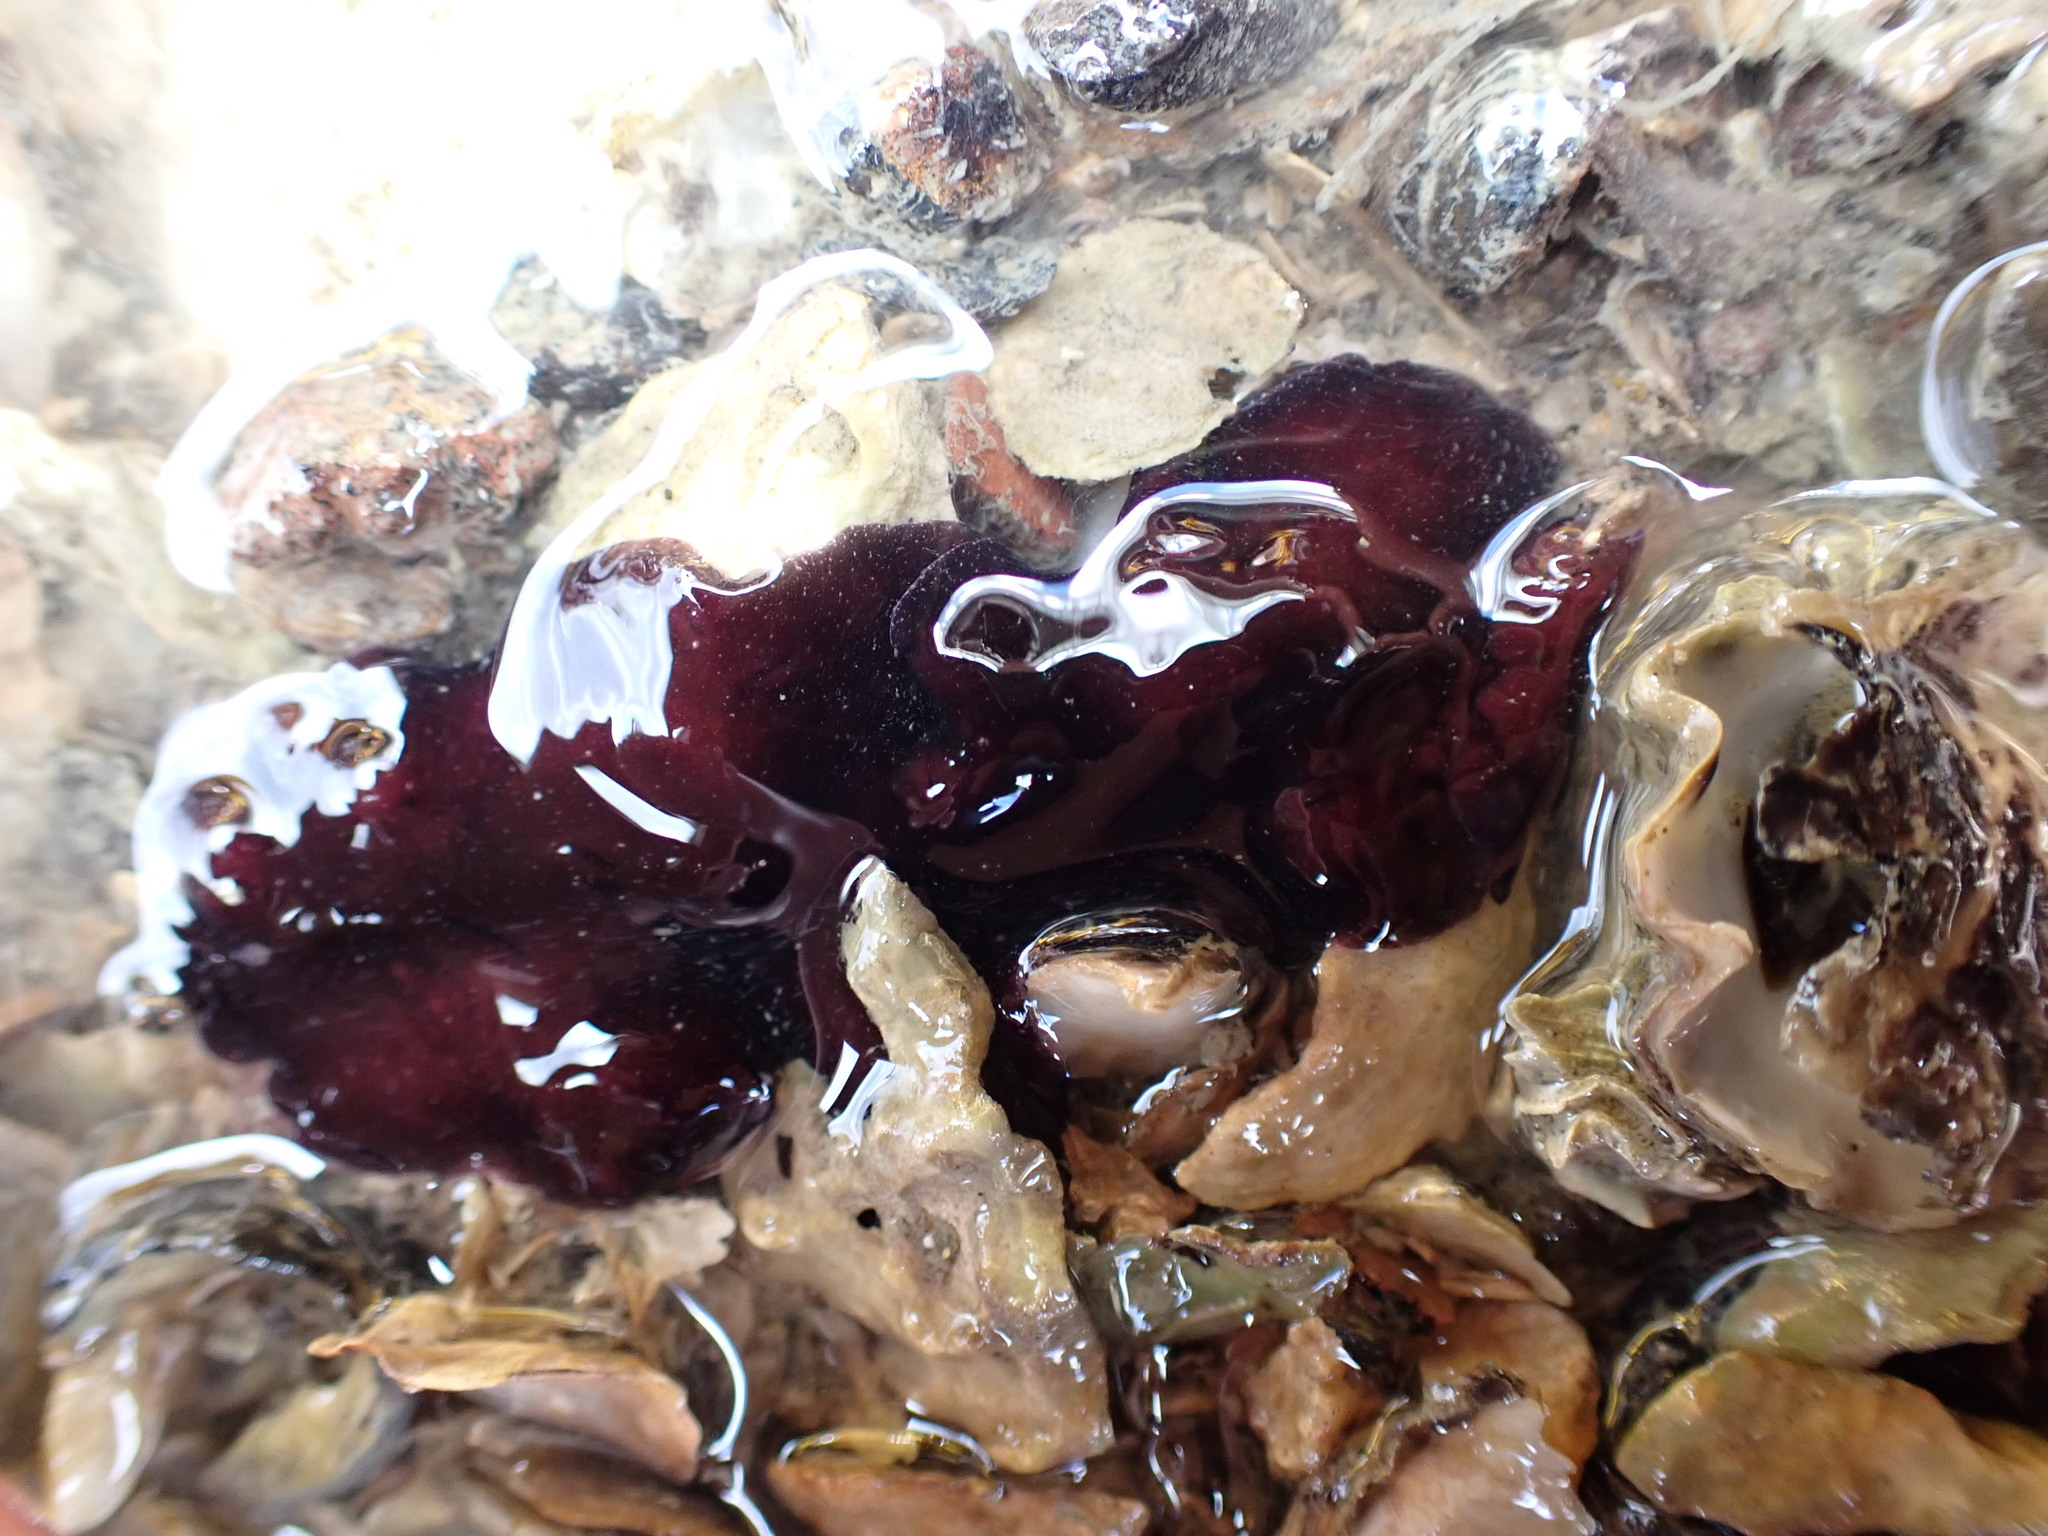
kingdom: Animalia
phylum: Platyhelminthes
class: Turbellaria
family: Pseudocerotidae
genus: Pseudoceros
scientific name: Pseudoceros bolool
